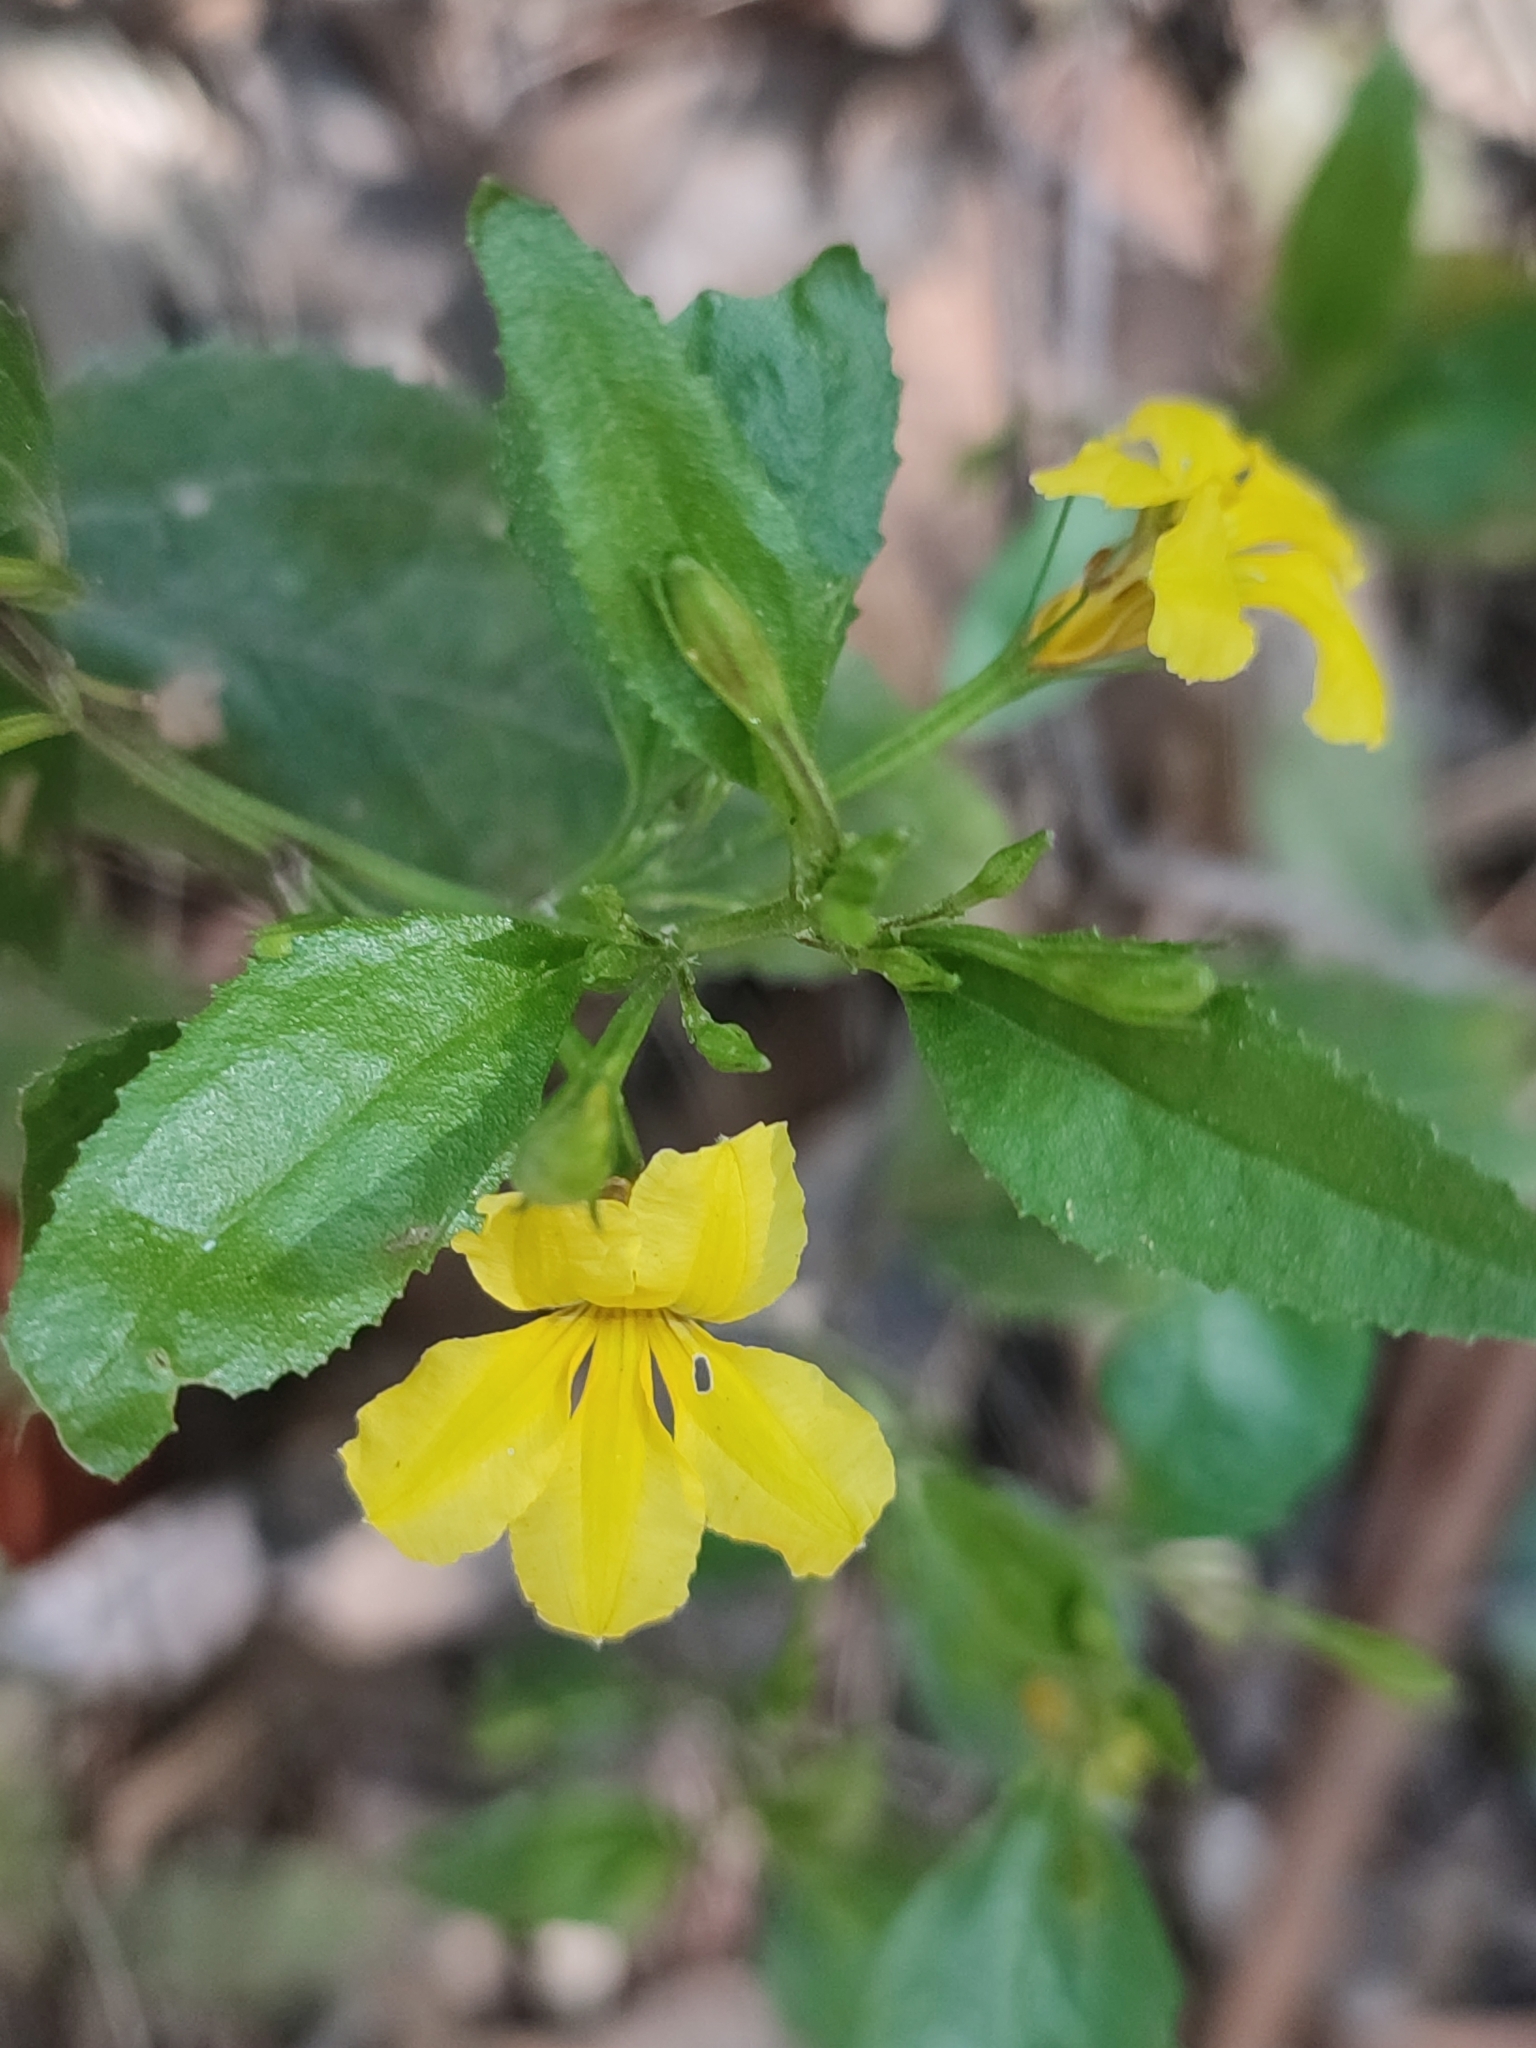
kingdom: Plantae
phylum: Tracheophyta
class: Magnoliopsida
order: Asterales
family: Goodeniaceae
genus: Goodenia
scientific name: Goodenia ovata
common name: Hop goodenia
